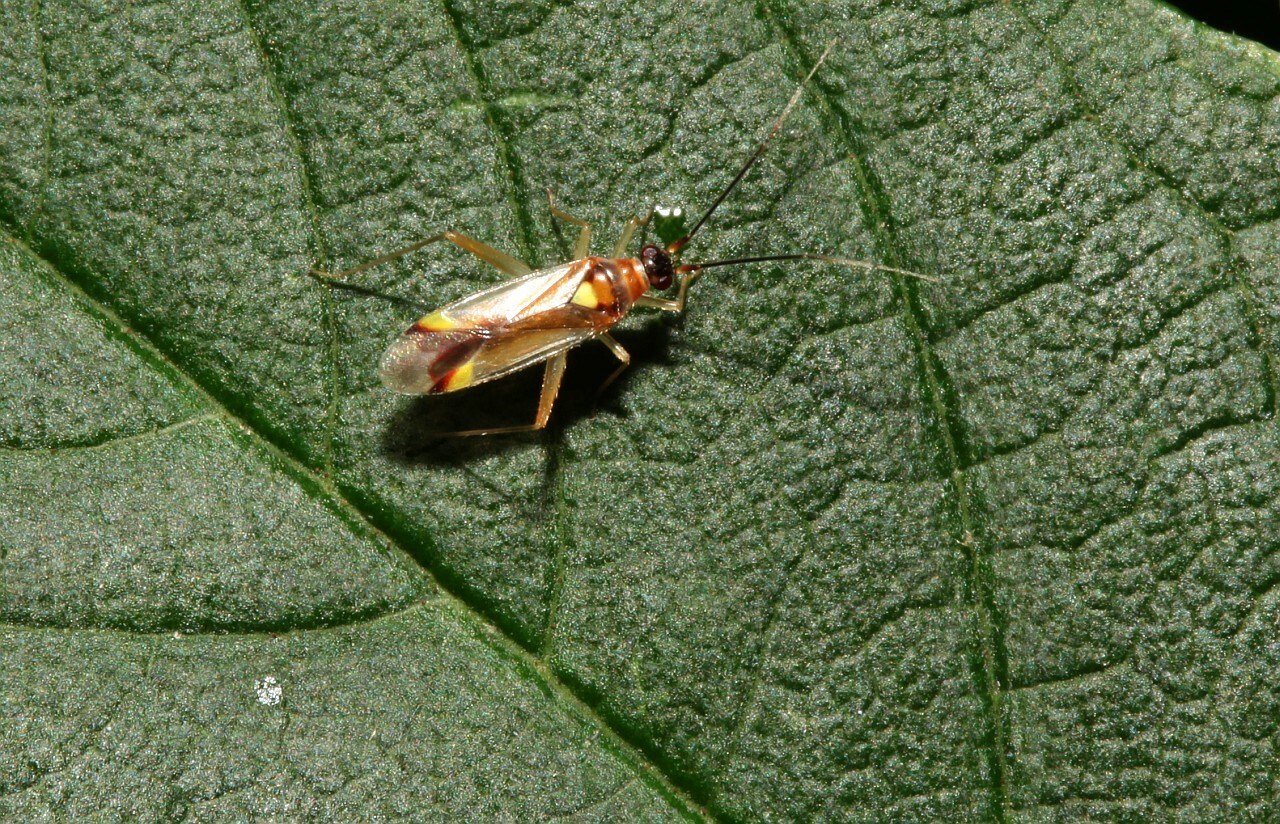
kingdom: Animalia
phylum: Arthropoda
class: Insecta
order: Hemiptera
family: Miridae
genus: Campyloneura
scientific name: Campyloneura virgula
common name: Predatory bug
